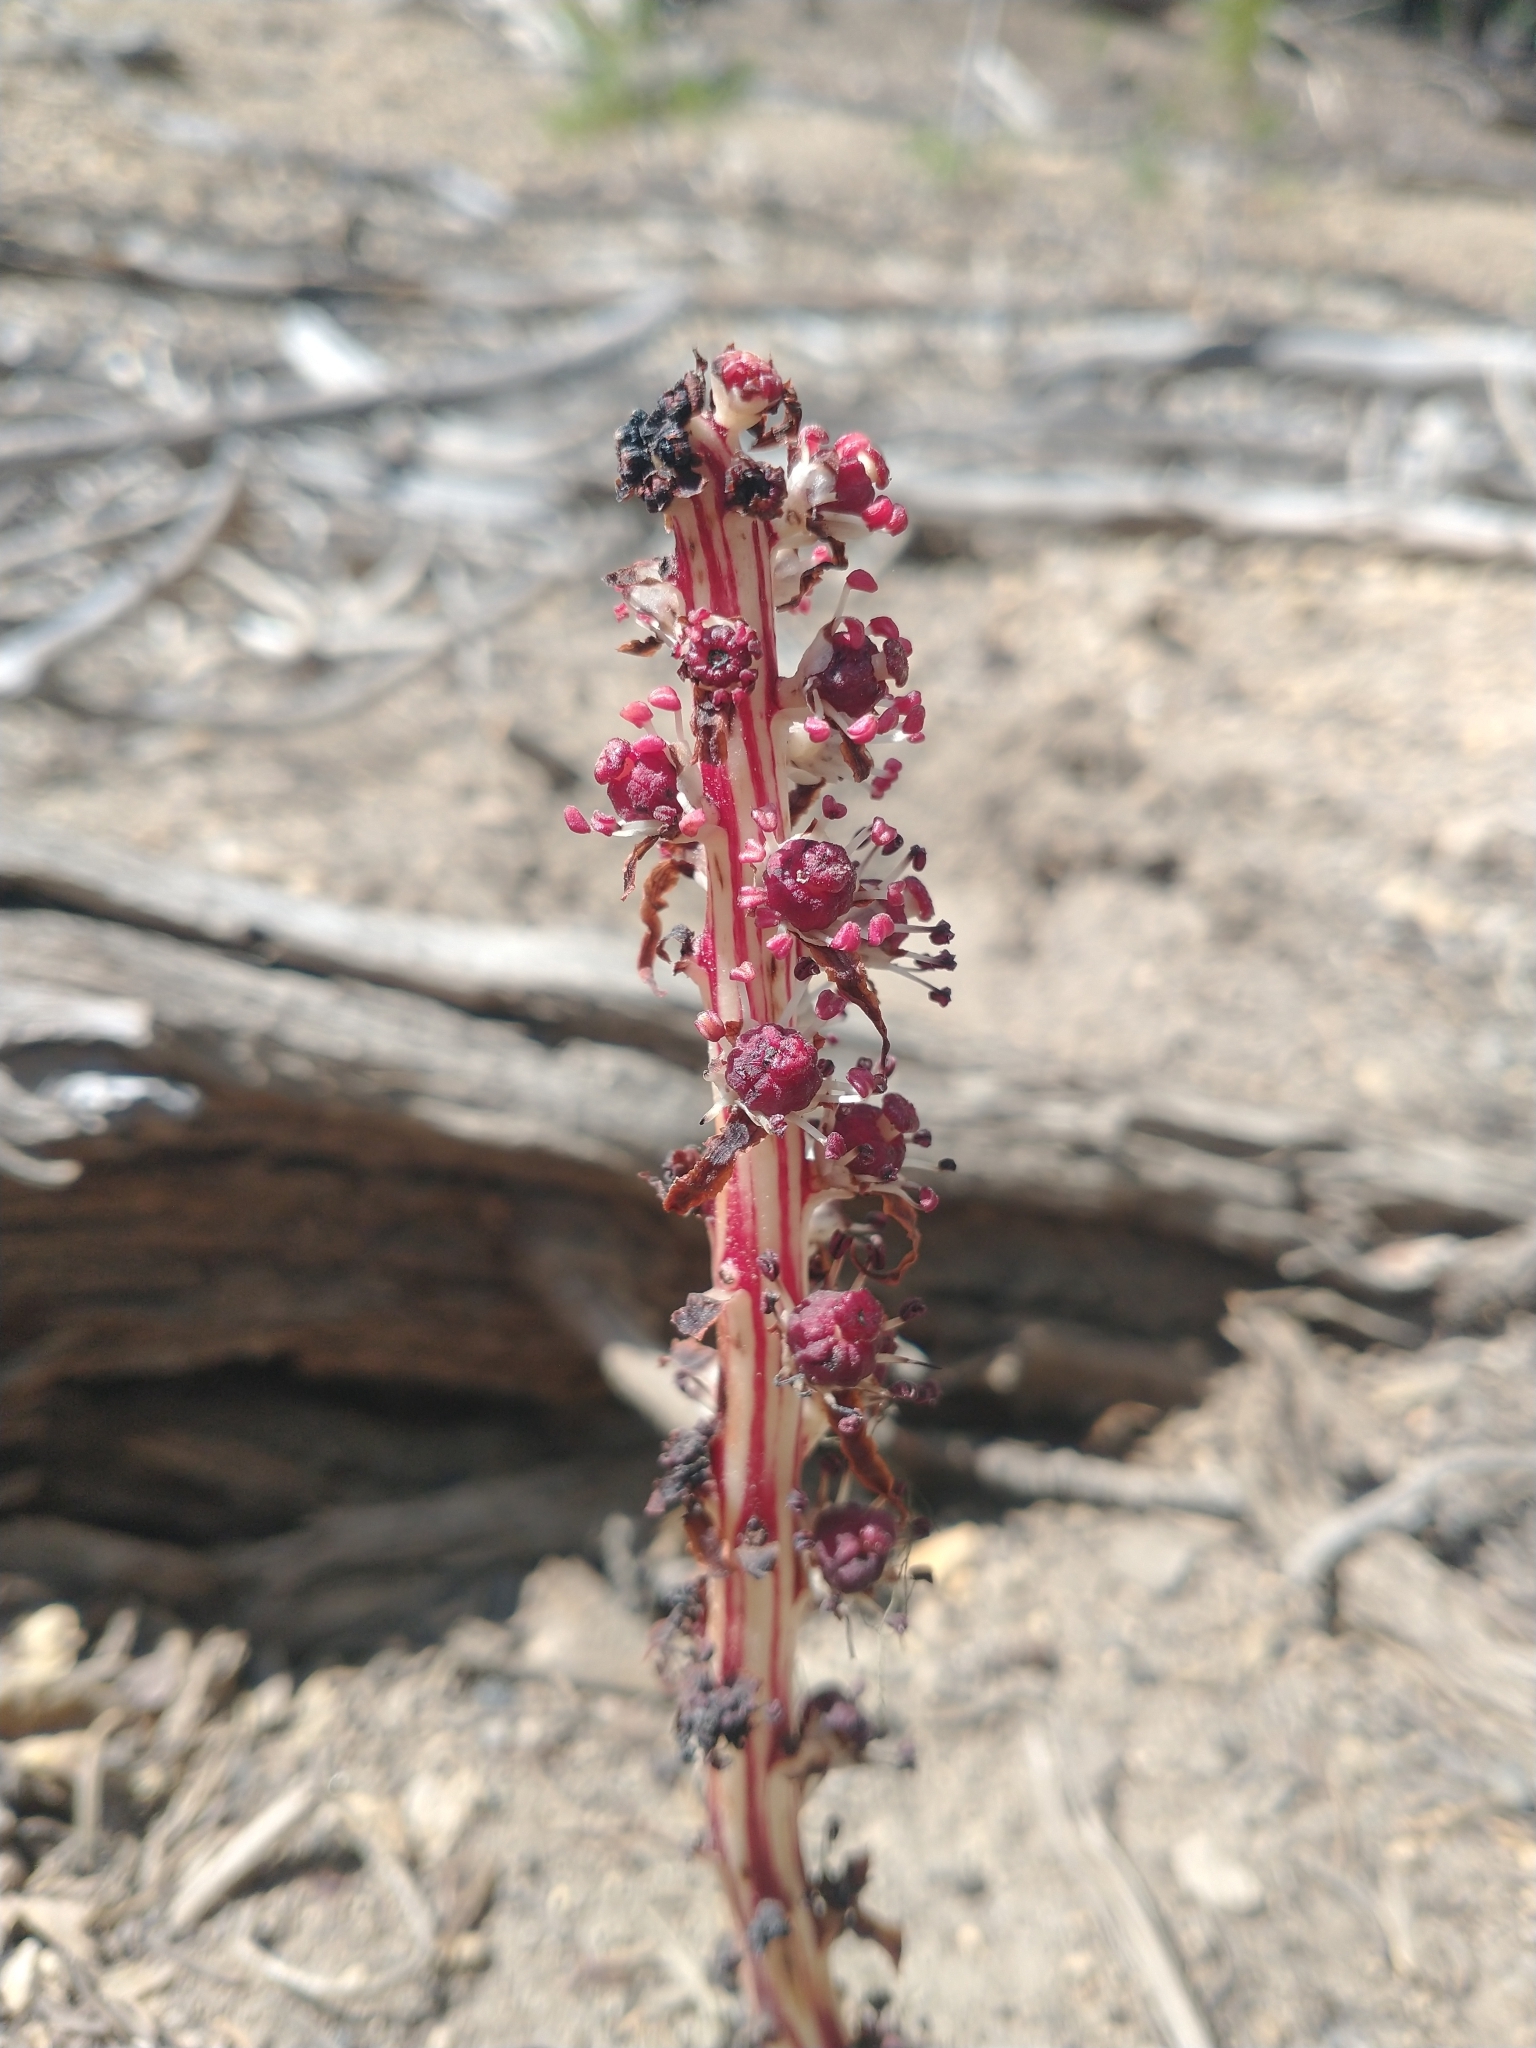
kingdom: Plantae
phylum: Tracheophyta
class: Magnoliopsida
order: Ericales
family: Ericaceae
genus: Allotropa
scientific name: Allotropa virgata
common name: Candy-striped allotropa
